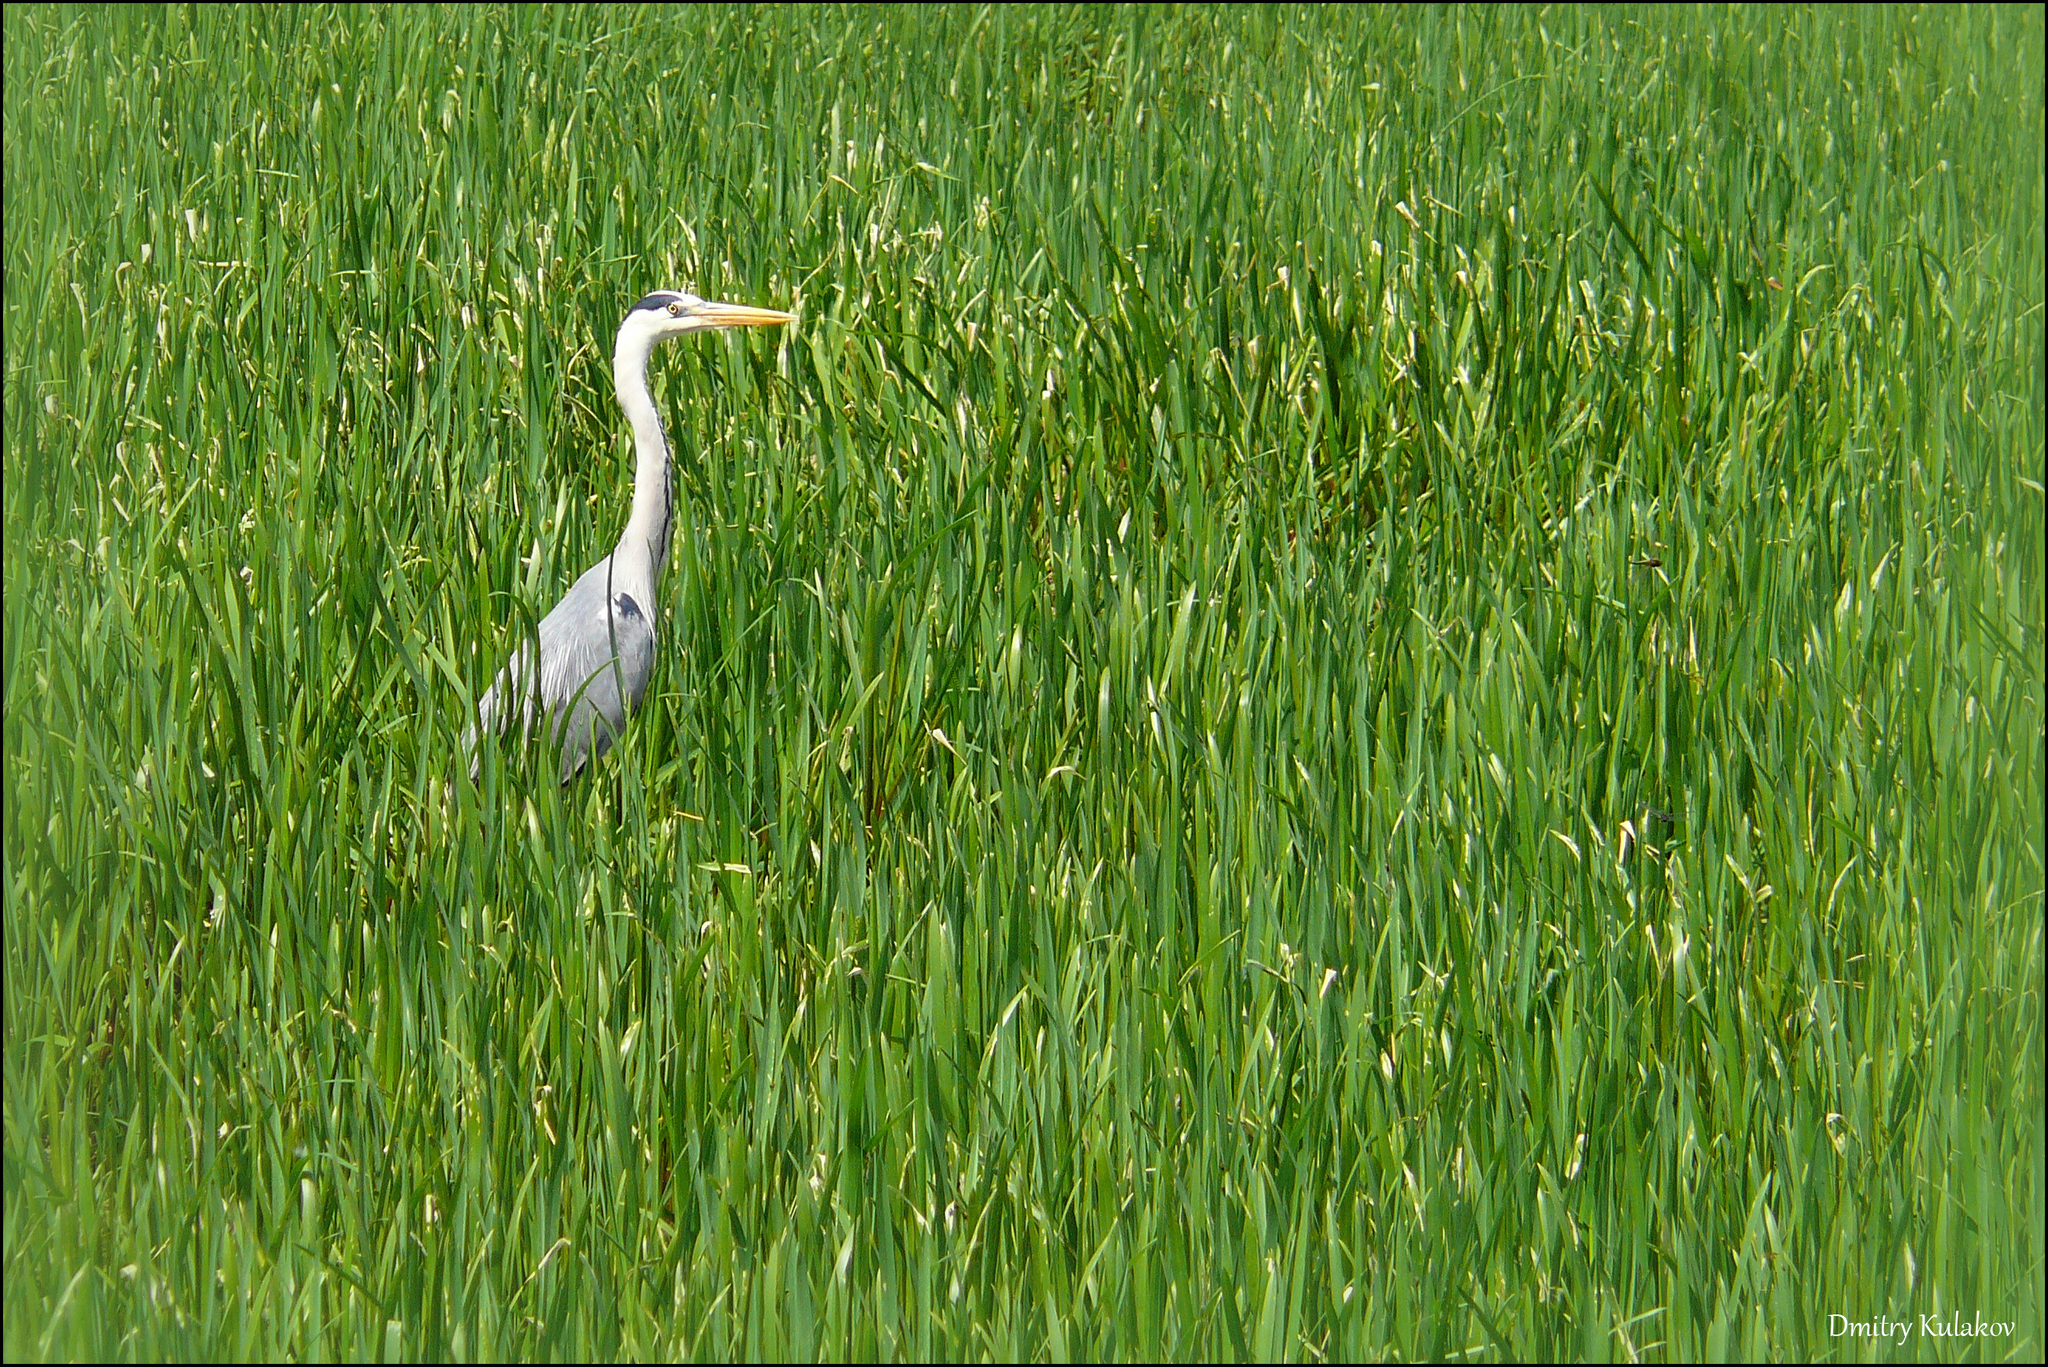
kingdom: Animalia
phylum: Chordata
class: Aves
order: Pelecaniformes
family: Ardeidae
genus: Ardea
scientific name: Ardea cinerea
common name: Grey heron
